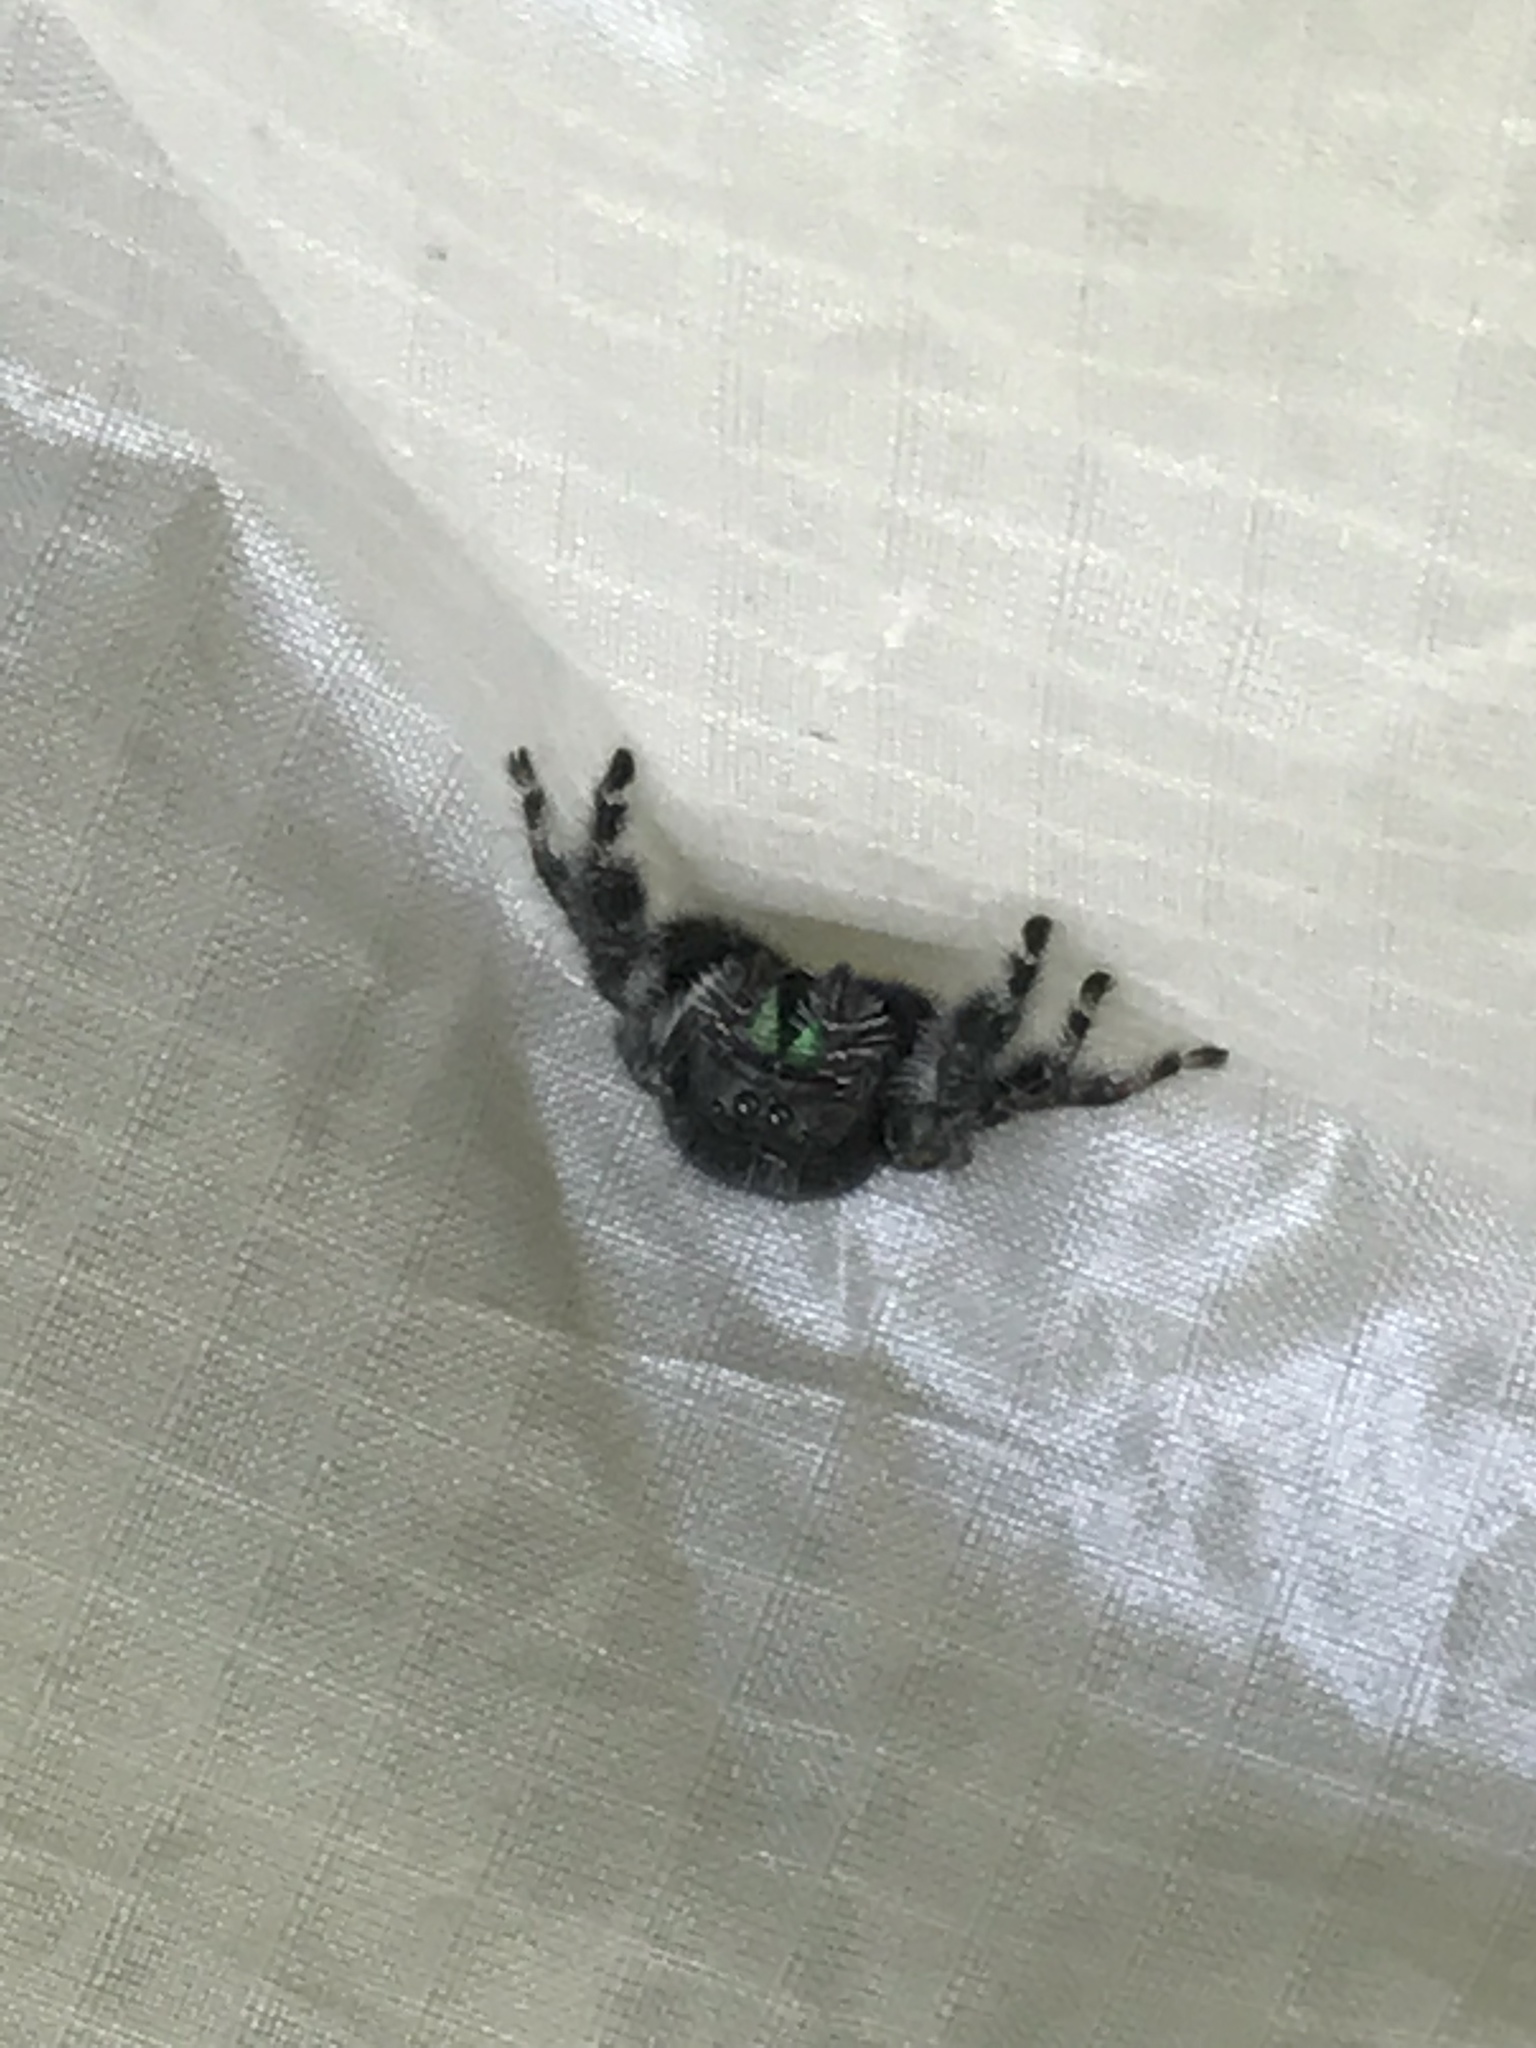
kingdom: Animalia
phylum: Arthropoda
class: Arachnida
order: Araneae
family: Salticidae
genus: Phidippus
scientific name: Phidippus audax
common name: Bold jumper
